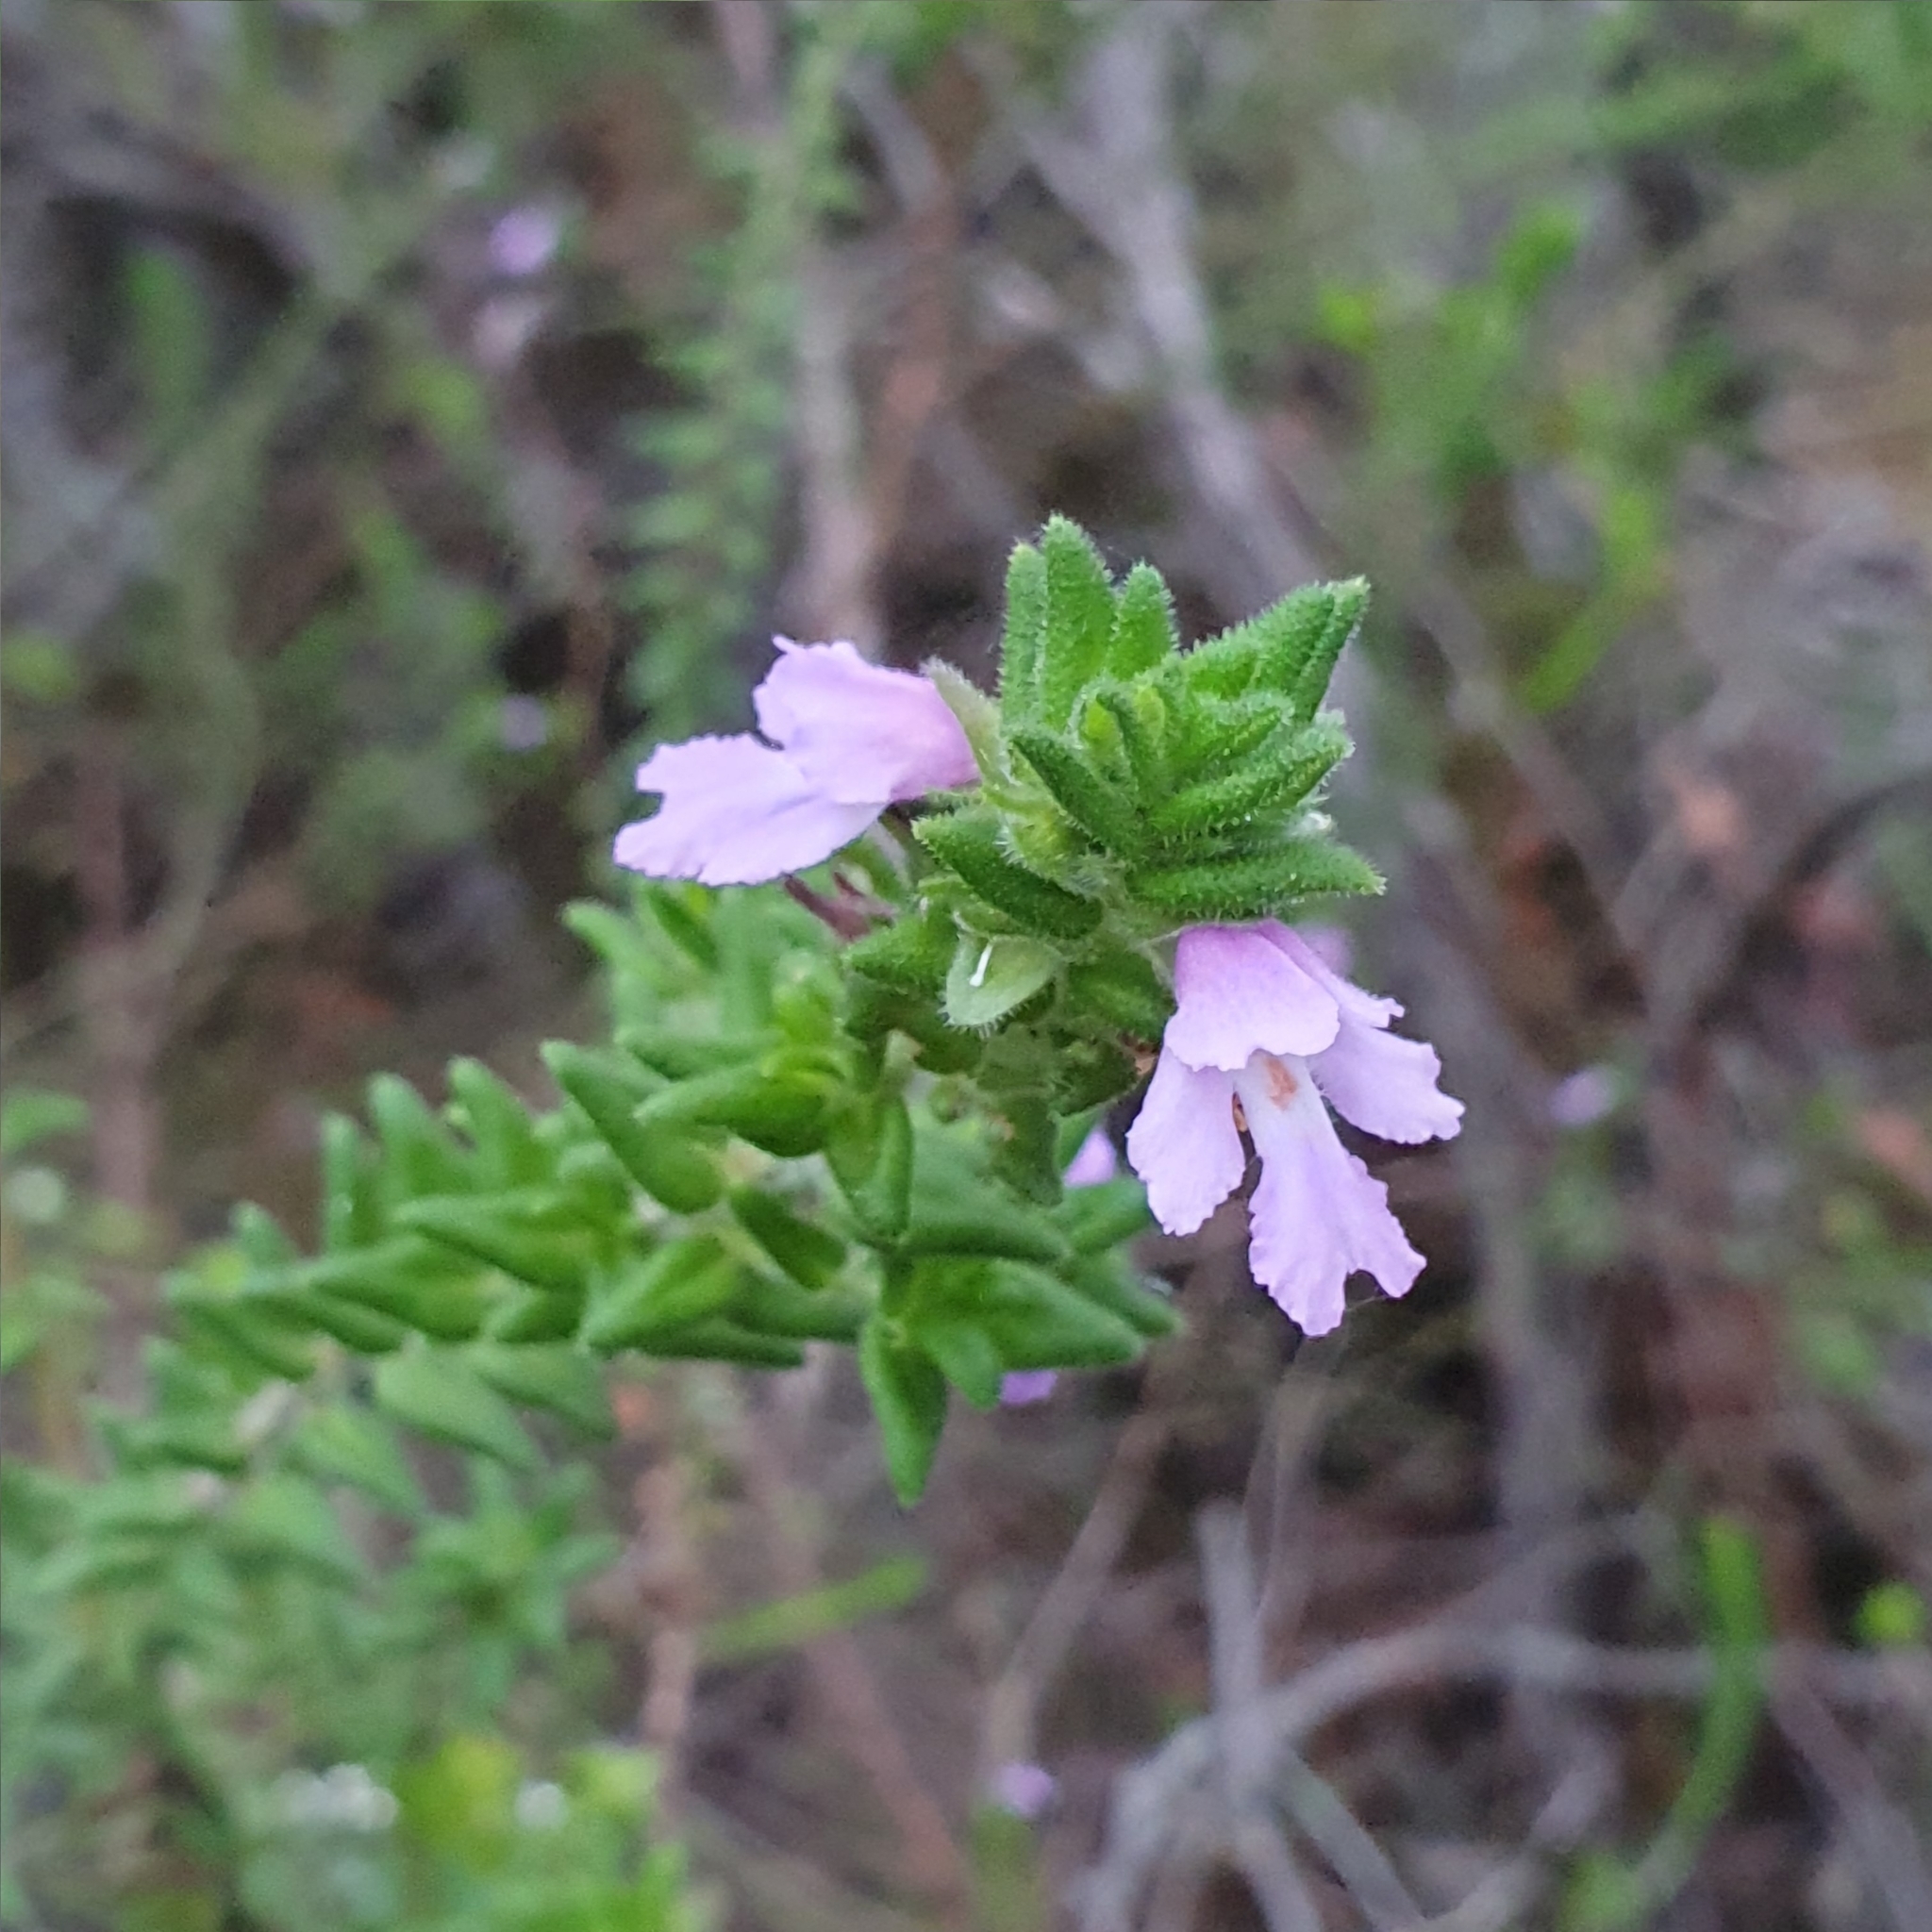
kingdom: Plantae
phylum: Tracheophyta
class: Magnoliopsida
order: Lamiales
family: Lamiaceae
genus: Prostanthera
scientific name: Prostanthera densa
